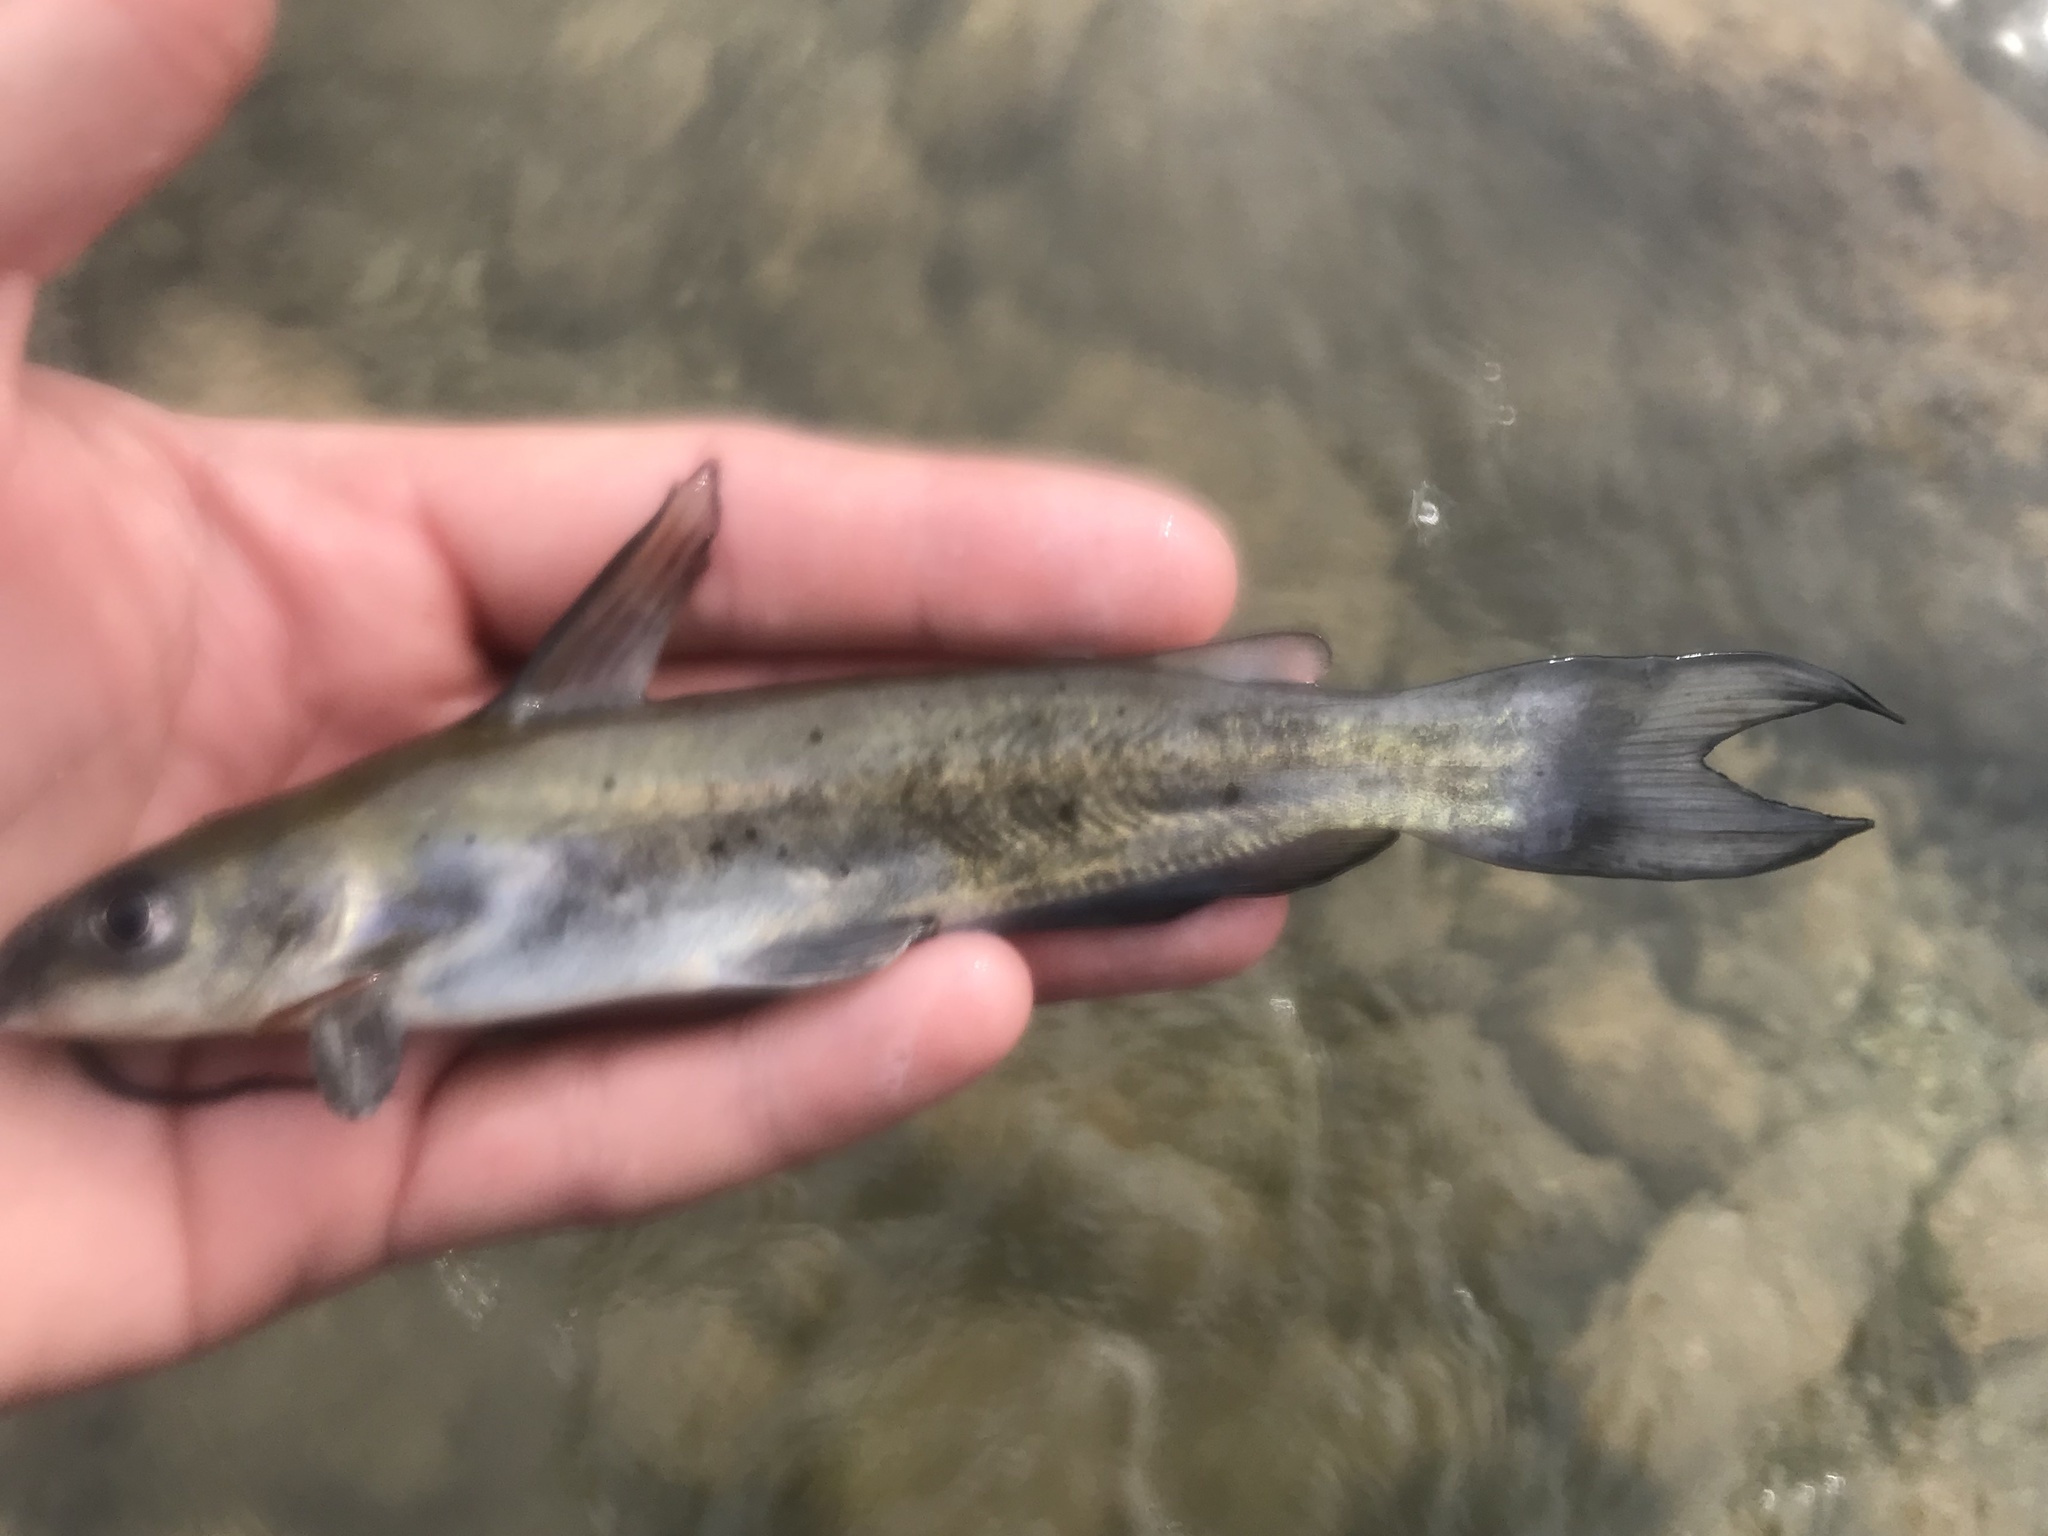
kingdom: Animalia
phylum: Chordata
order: Siluriformes
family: Ictaluridae
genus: Ictalurus
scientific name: Ictalurus punctatus
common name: Channel catfish
